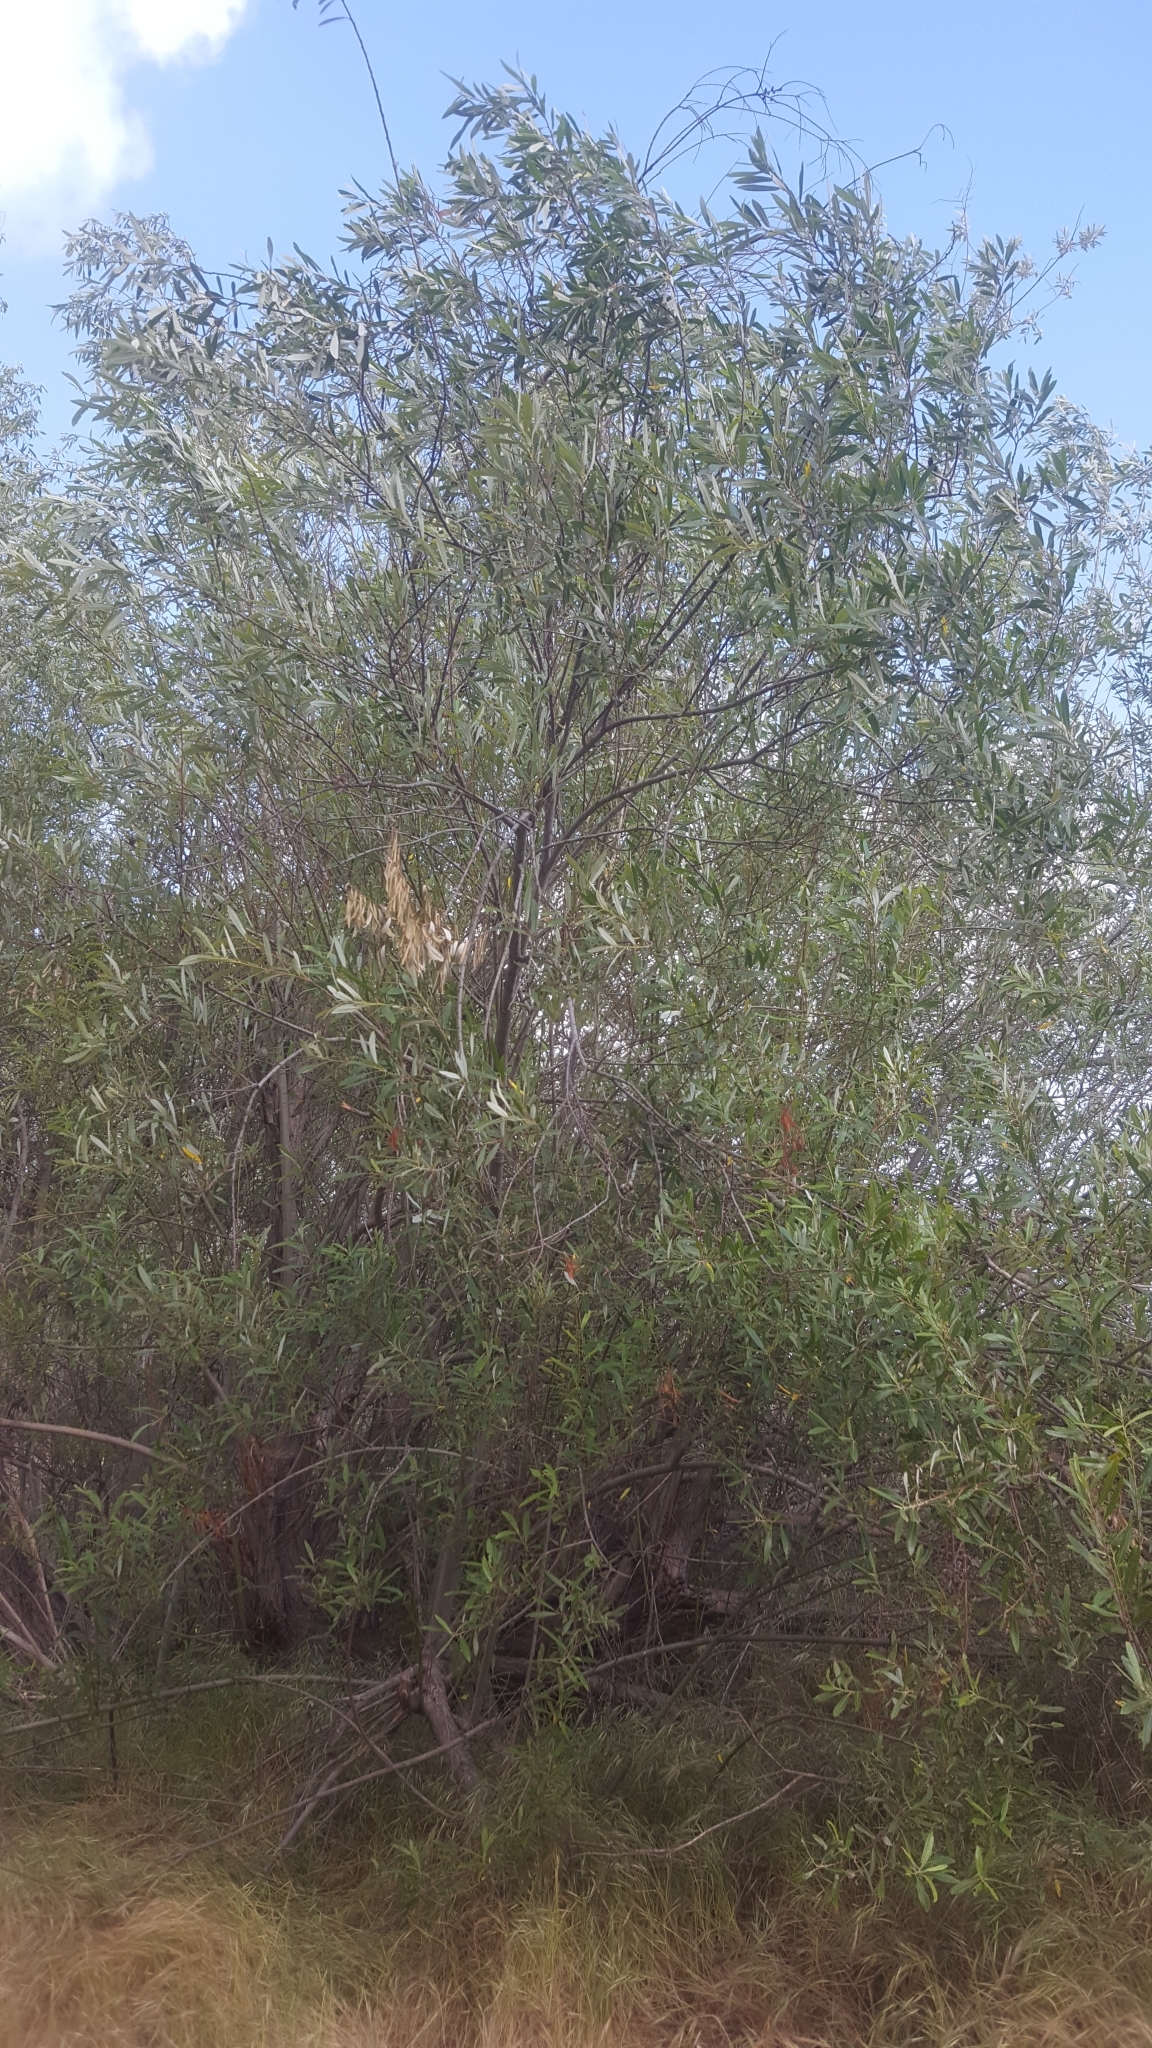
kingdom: Plantae
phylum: Tracheophyta
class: Magnoliopsida
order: Malpighiales
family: Salicaceae
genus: Salix
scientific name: Salix lasiolepis
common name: Arroyo willow
